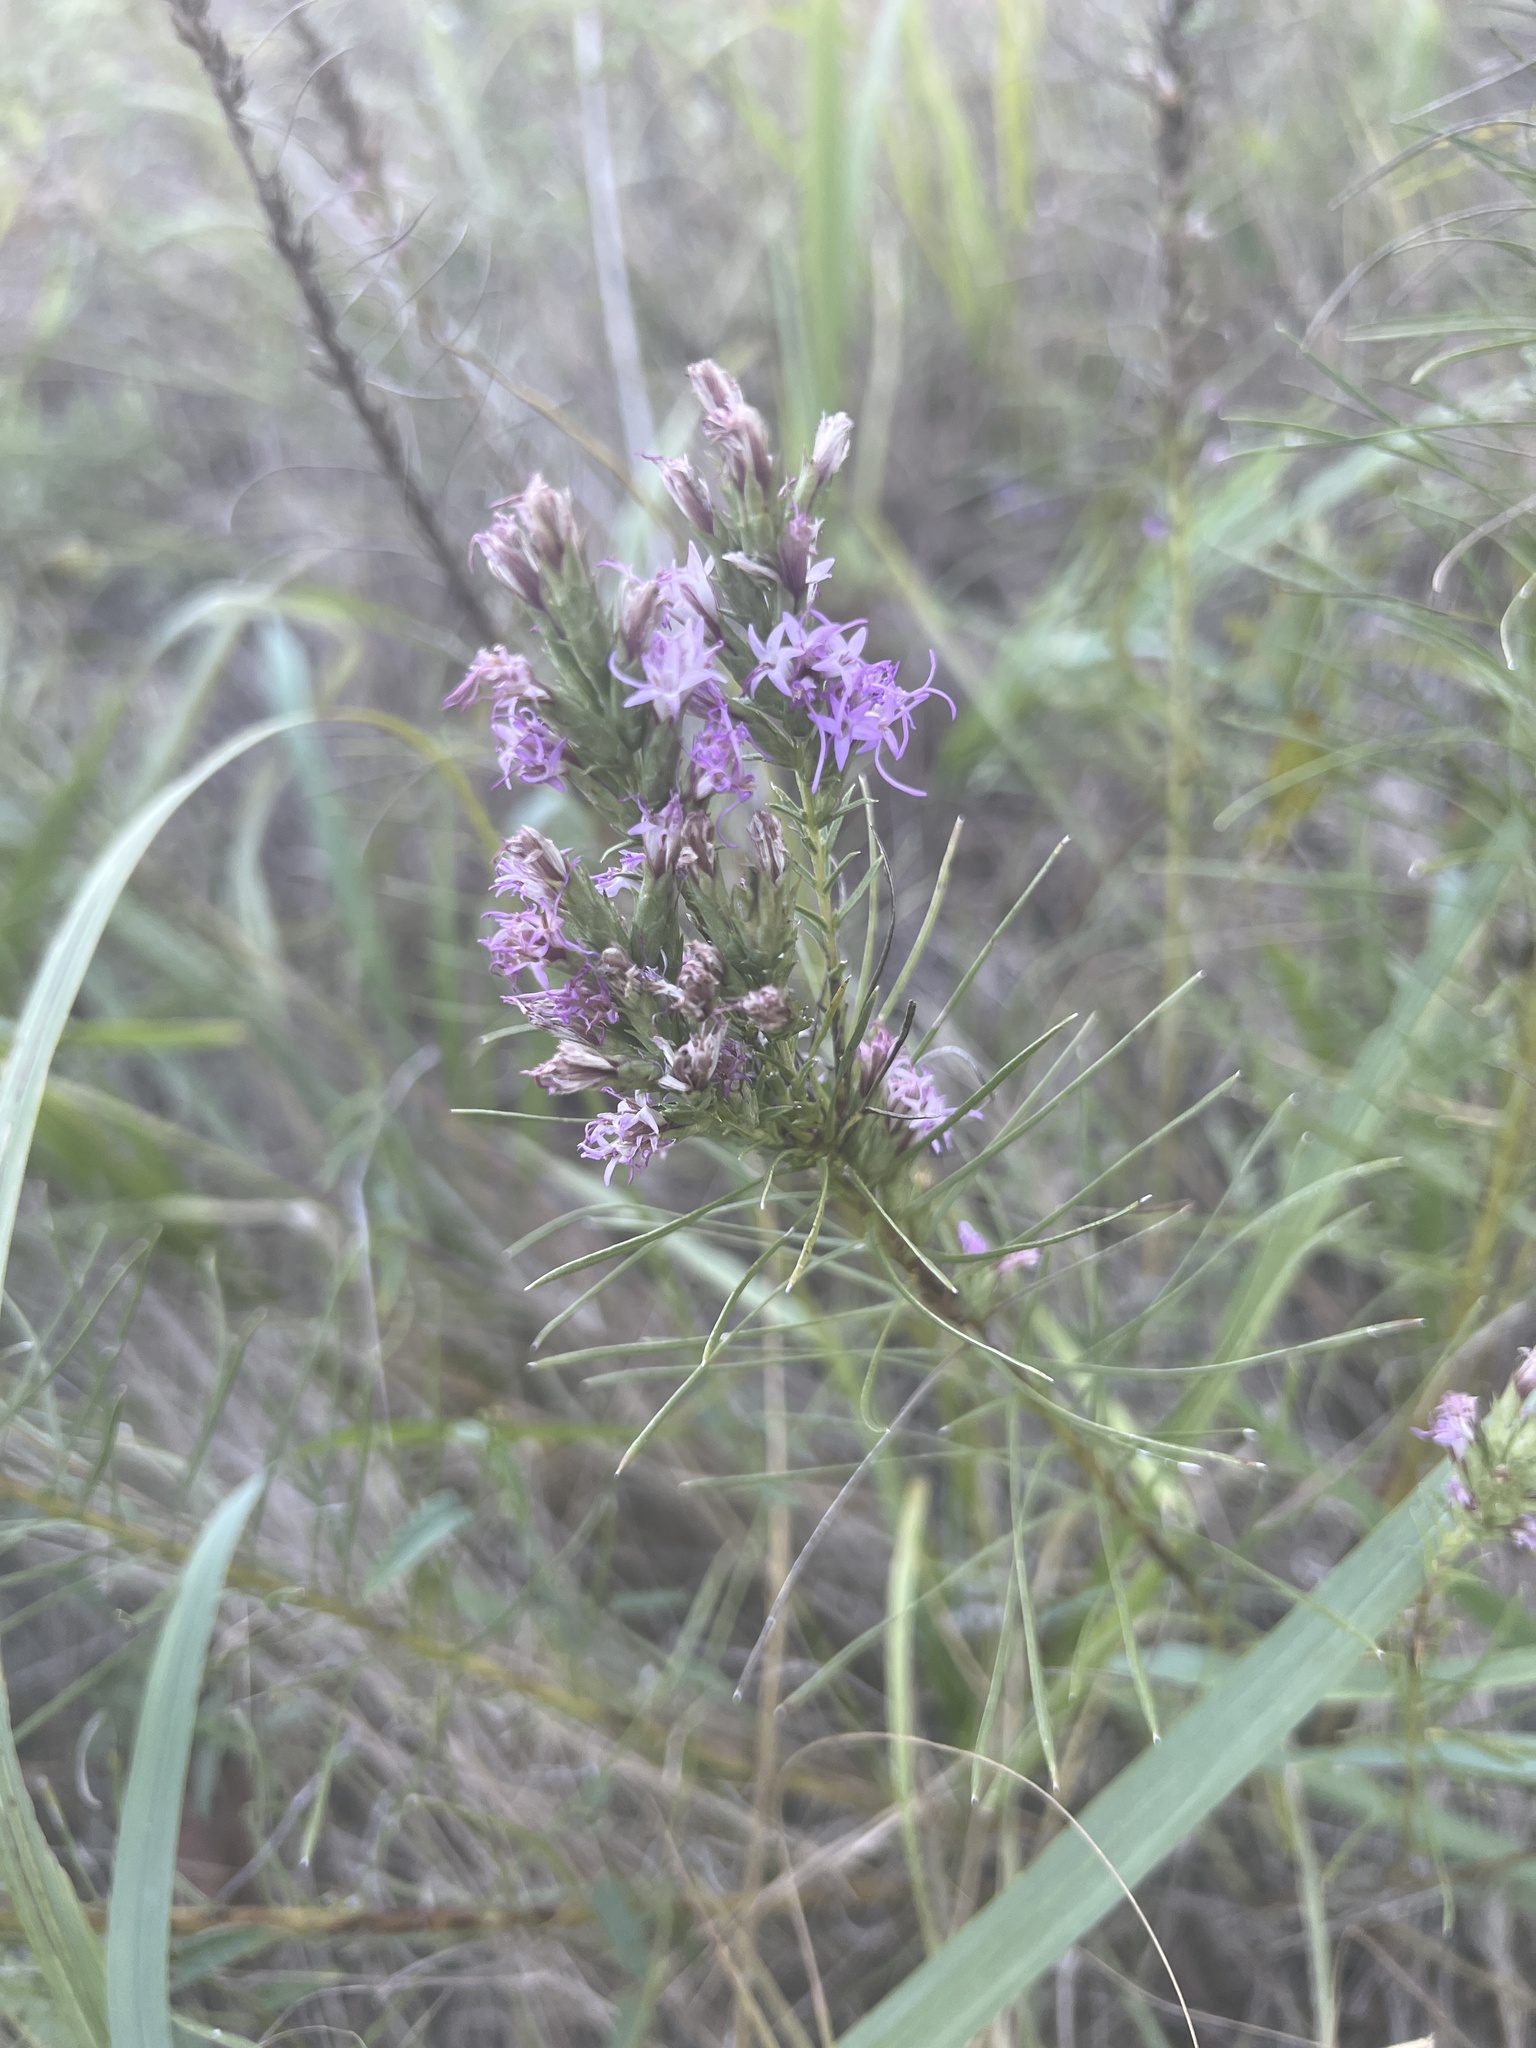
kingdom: Plantae
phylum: Tracheophyta
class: Magnoliopsida
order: Asterales
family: Asteraceae
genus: Liatris
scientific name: Liatris punctata
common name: Dotted gayfeather
